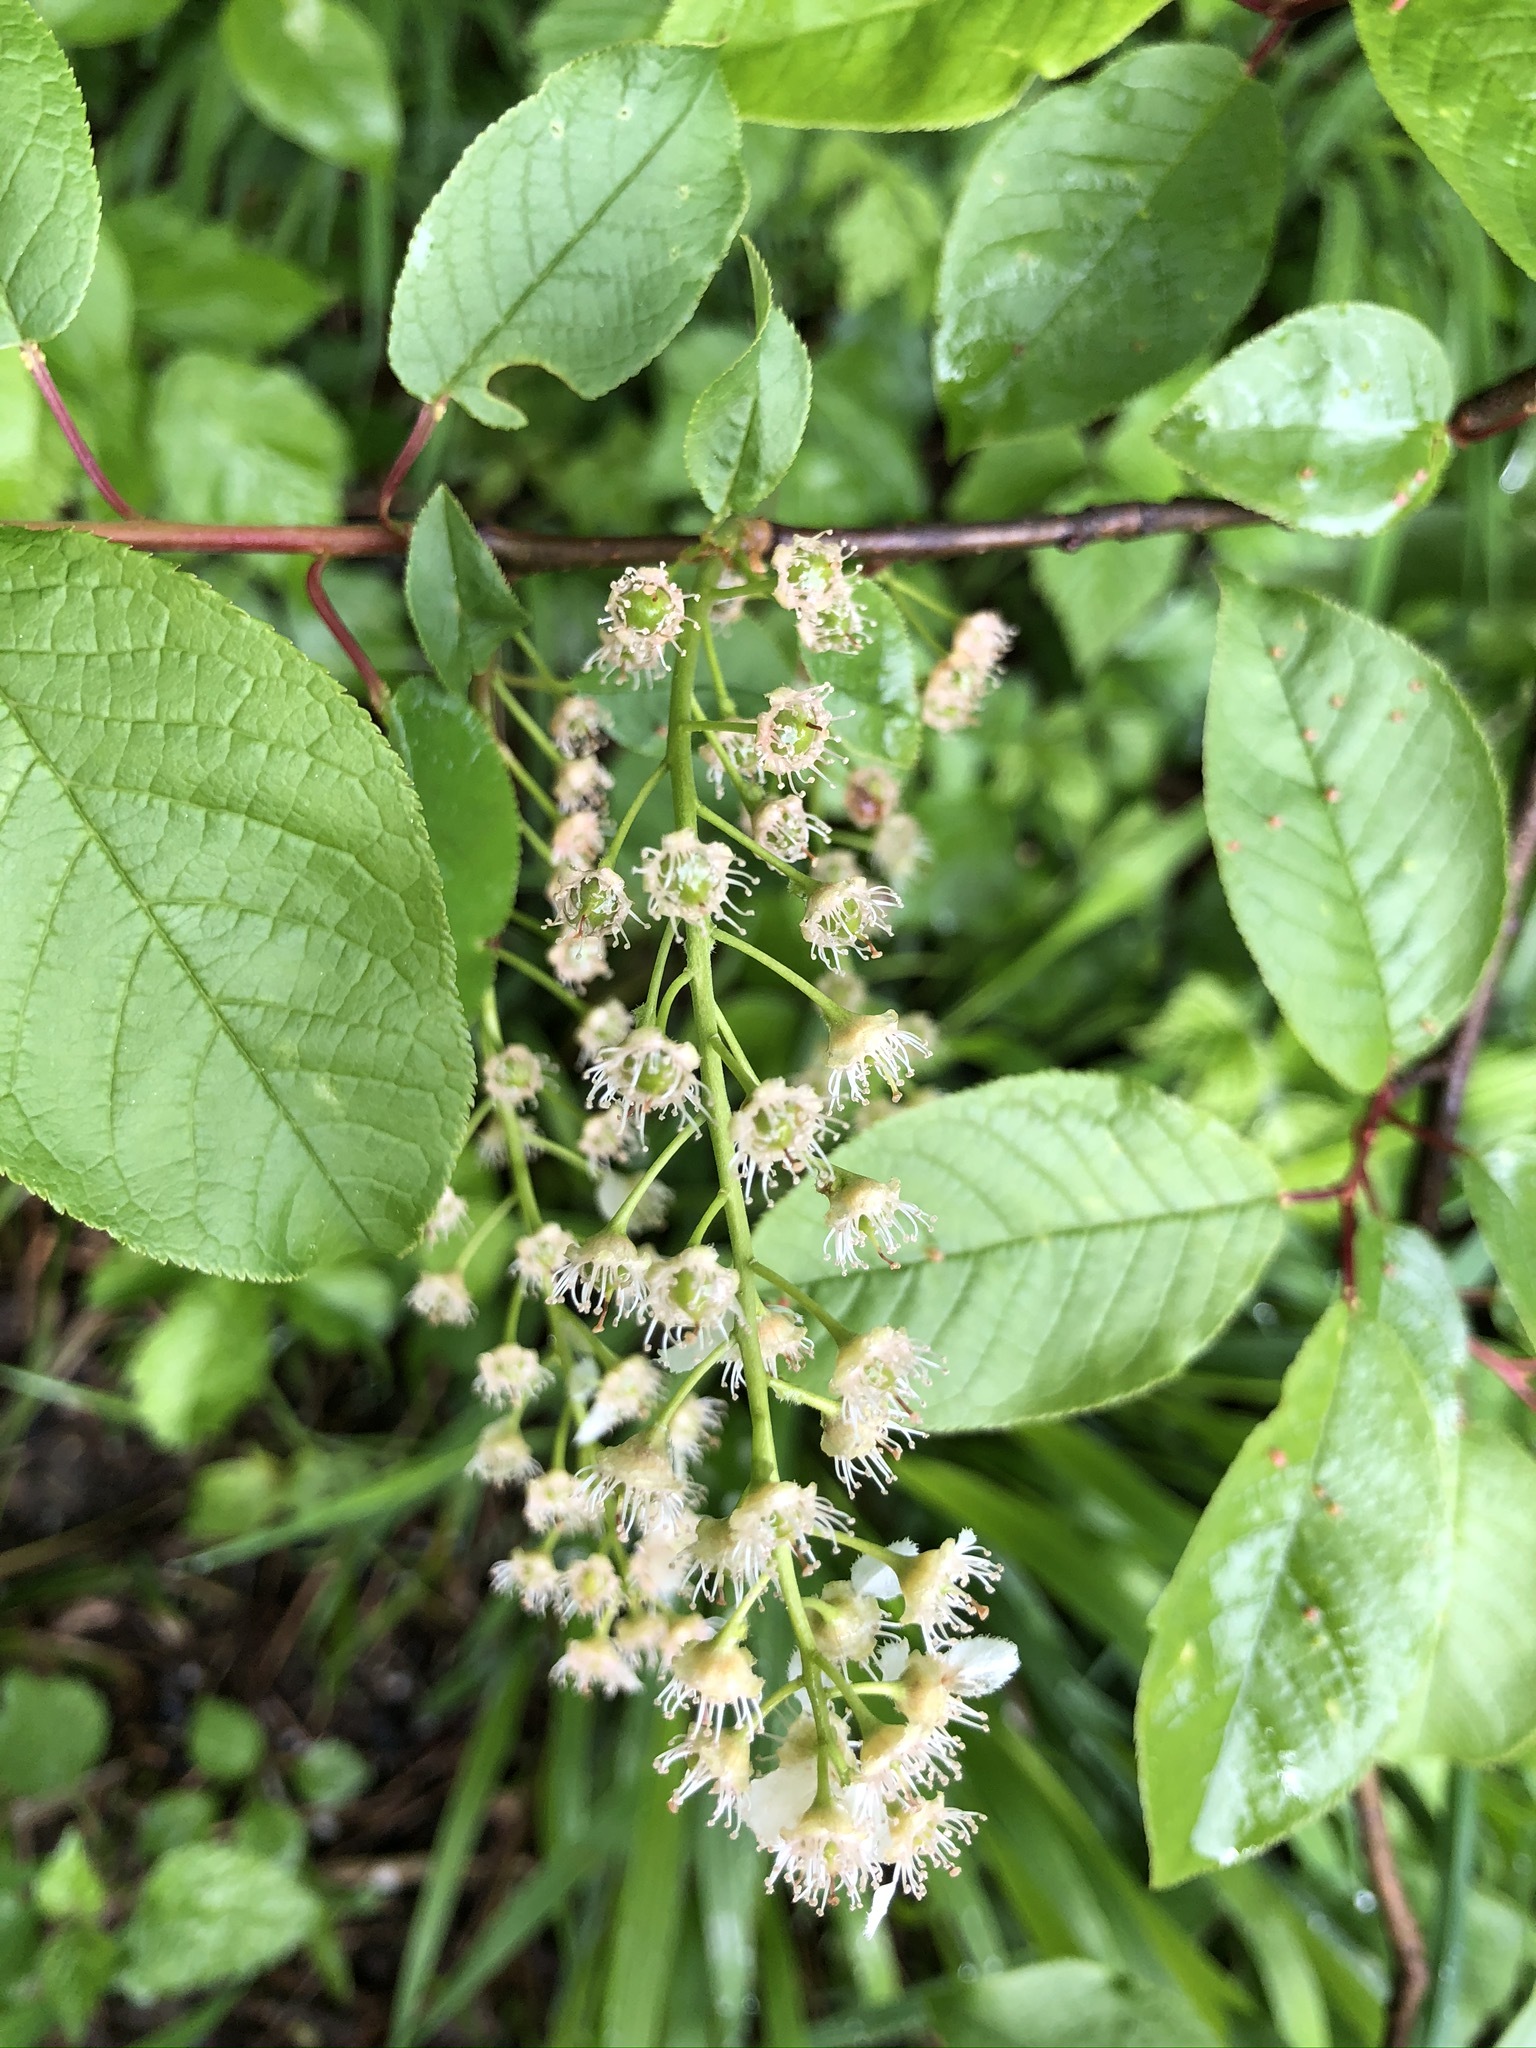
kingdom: Plantae
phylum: Tracheophyta
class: Magnoliopsida
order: Rosales
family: Rosaceae
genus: Prunus
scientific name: Prunus padus
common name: Bird cherry
